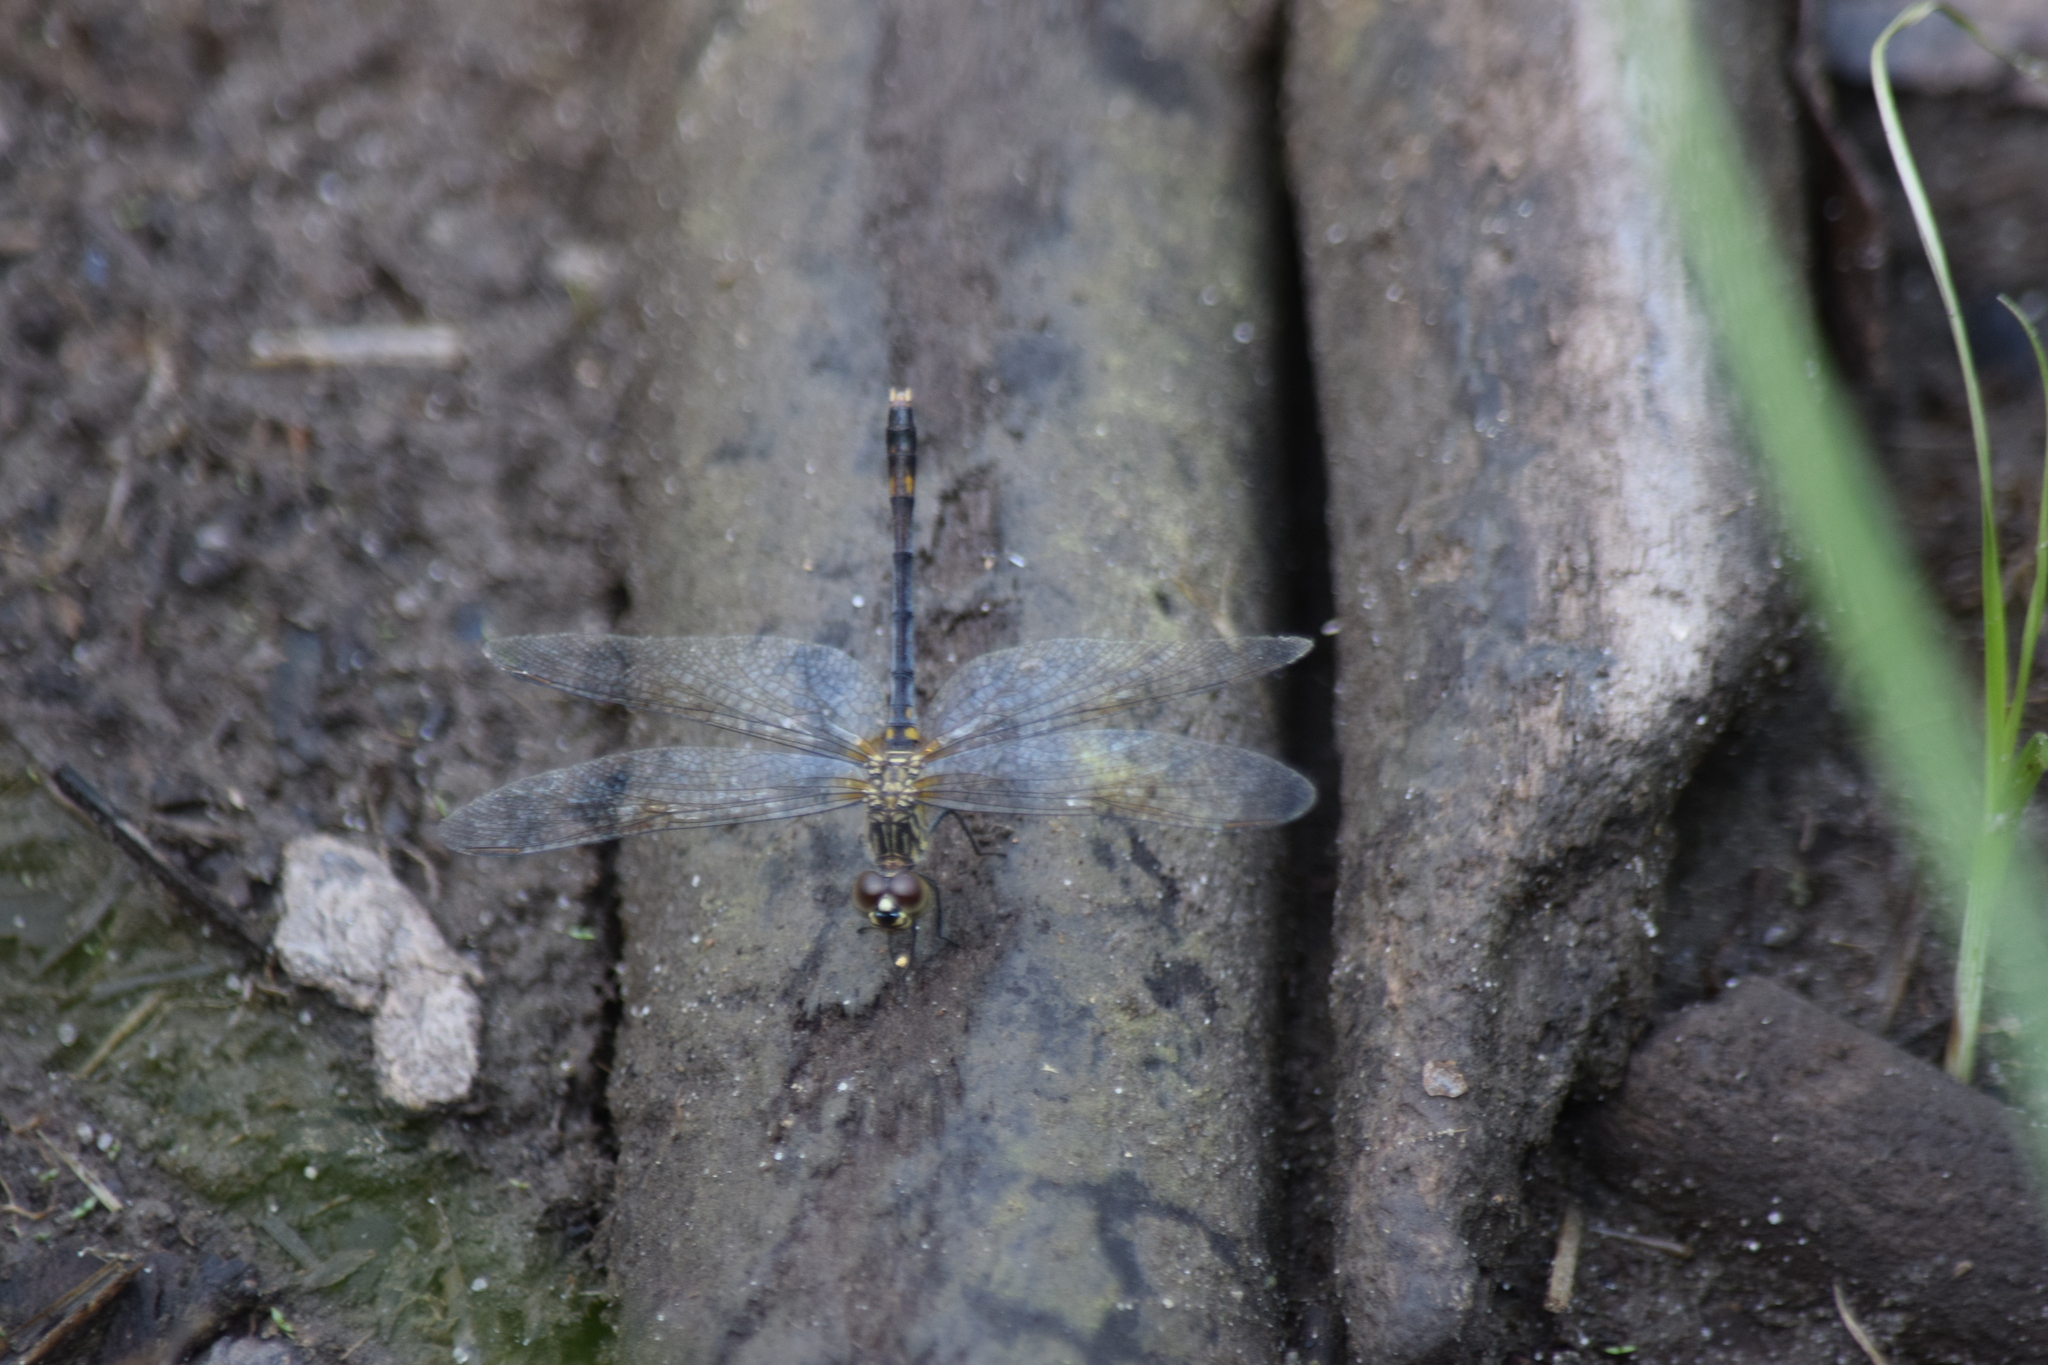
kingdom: Animalia
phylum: Arthropoda
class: Insecta
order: Odonata
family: Libellulidae
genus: Erythrodiplax
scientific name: Erythrodiplax berenice
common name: Seaside dragonlet
